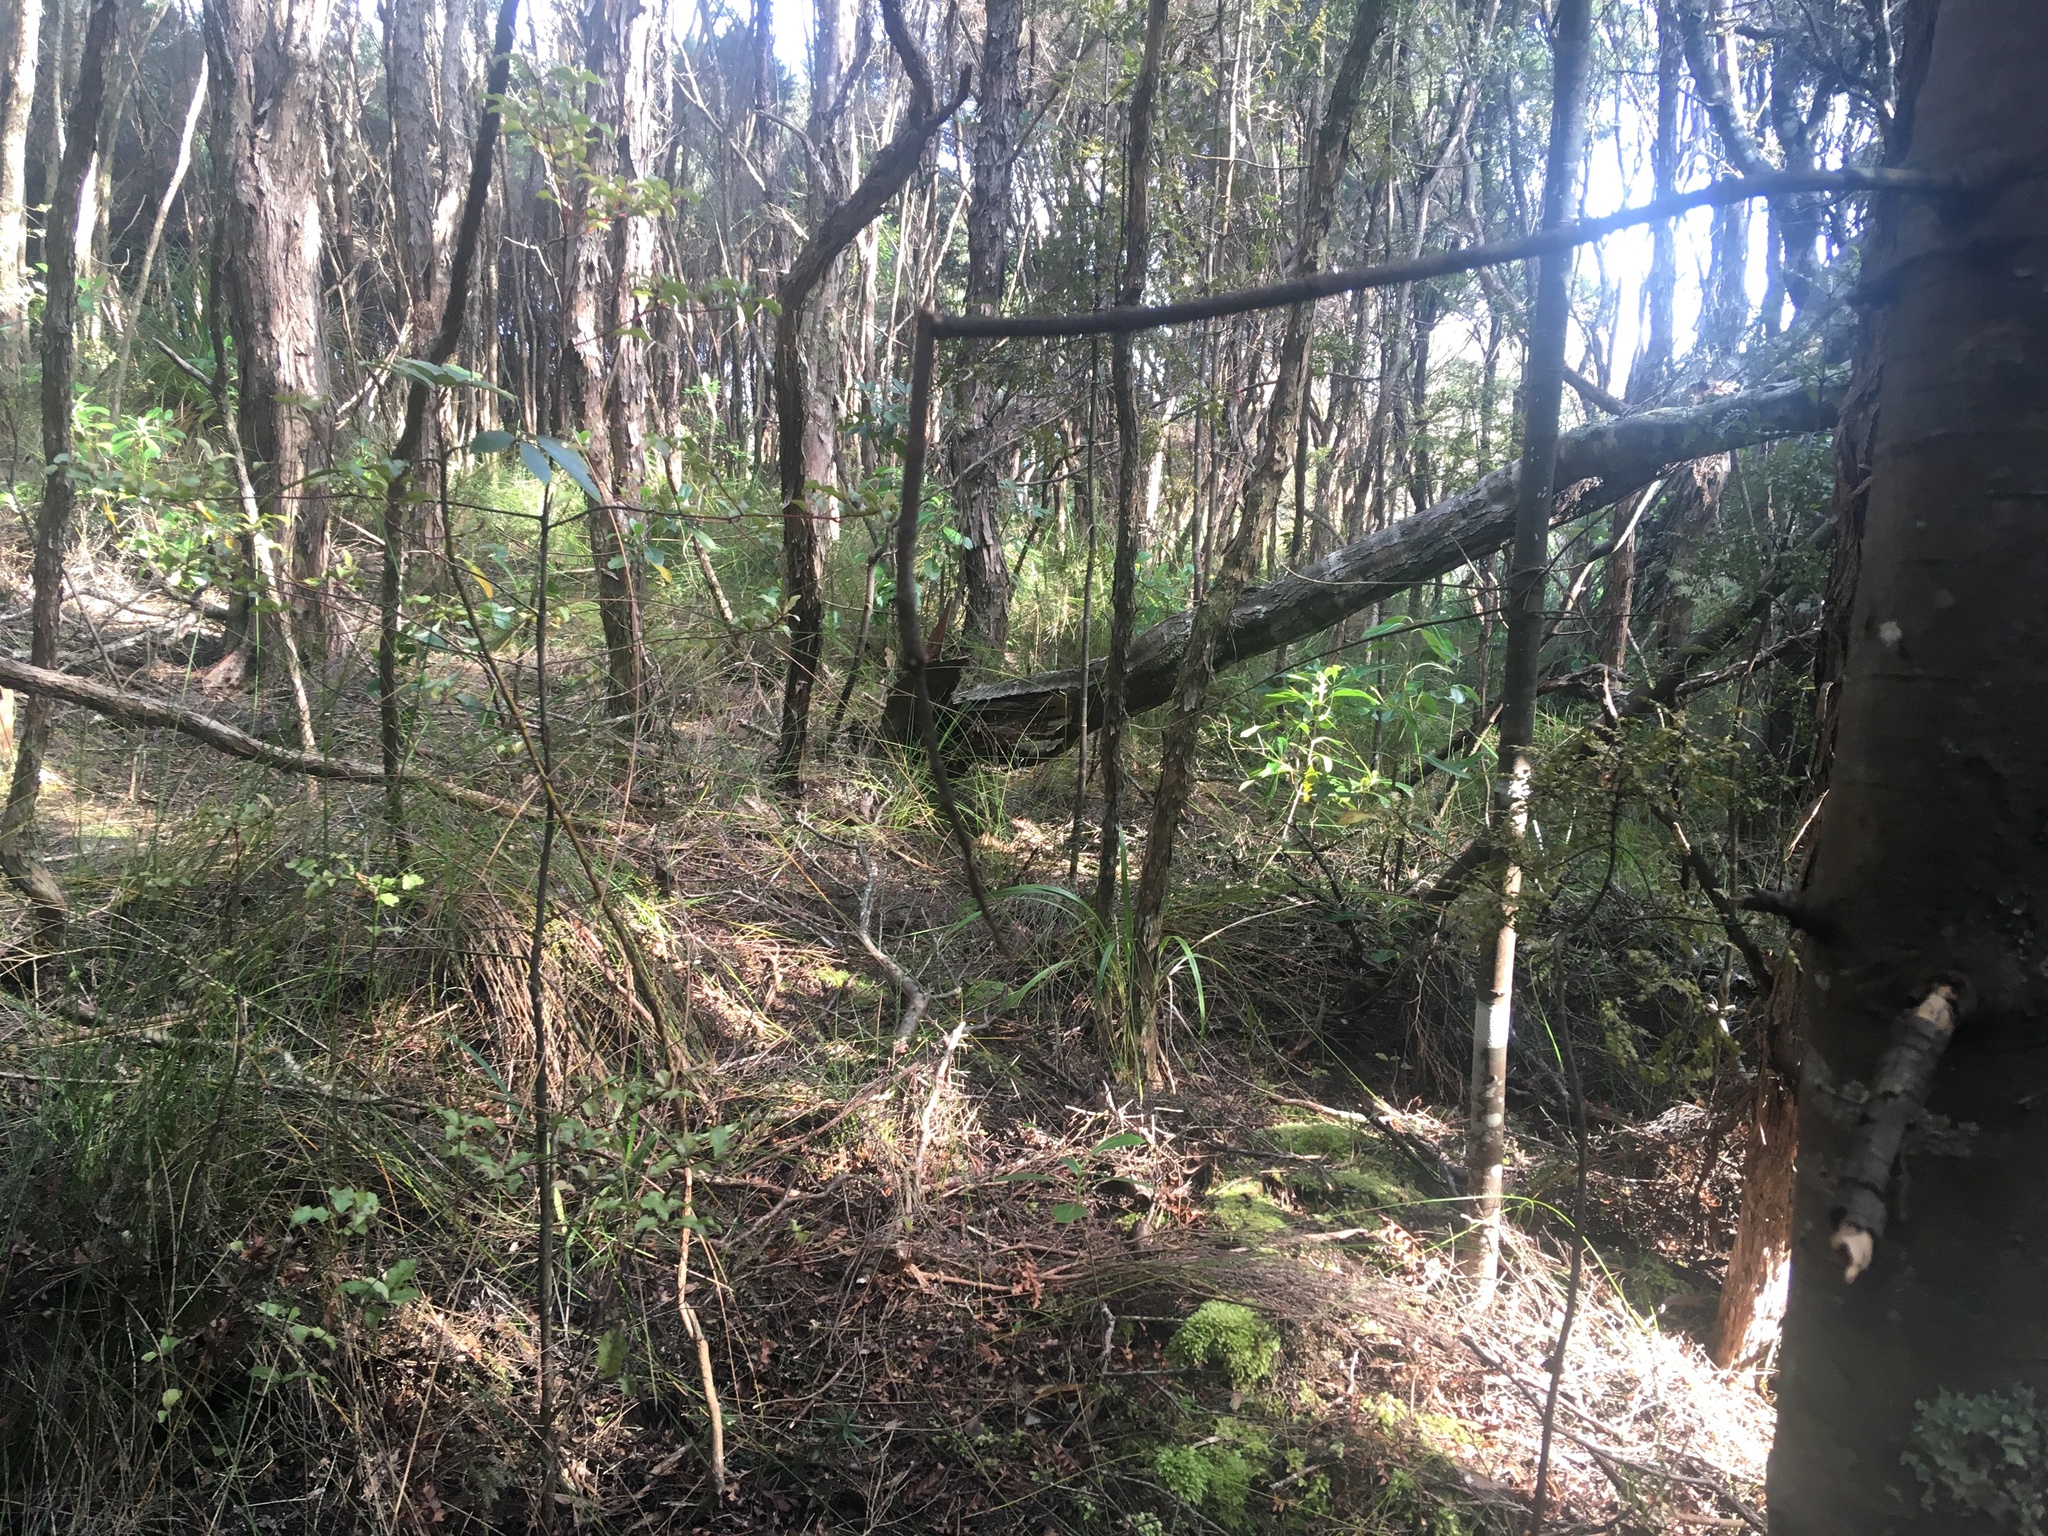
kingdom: Plantae
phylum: Tracheophyta
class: Magnoliopsida
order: Ericales
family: Primulaceae
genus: Myrsine
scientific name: Myrsine australis
